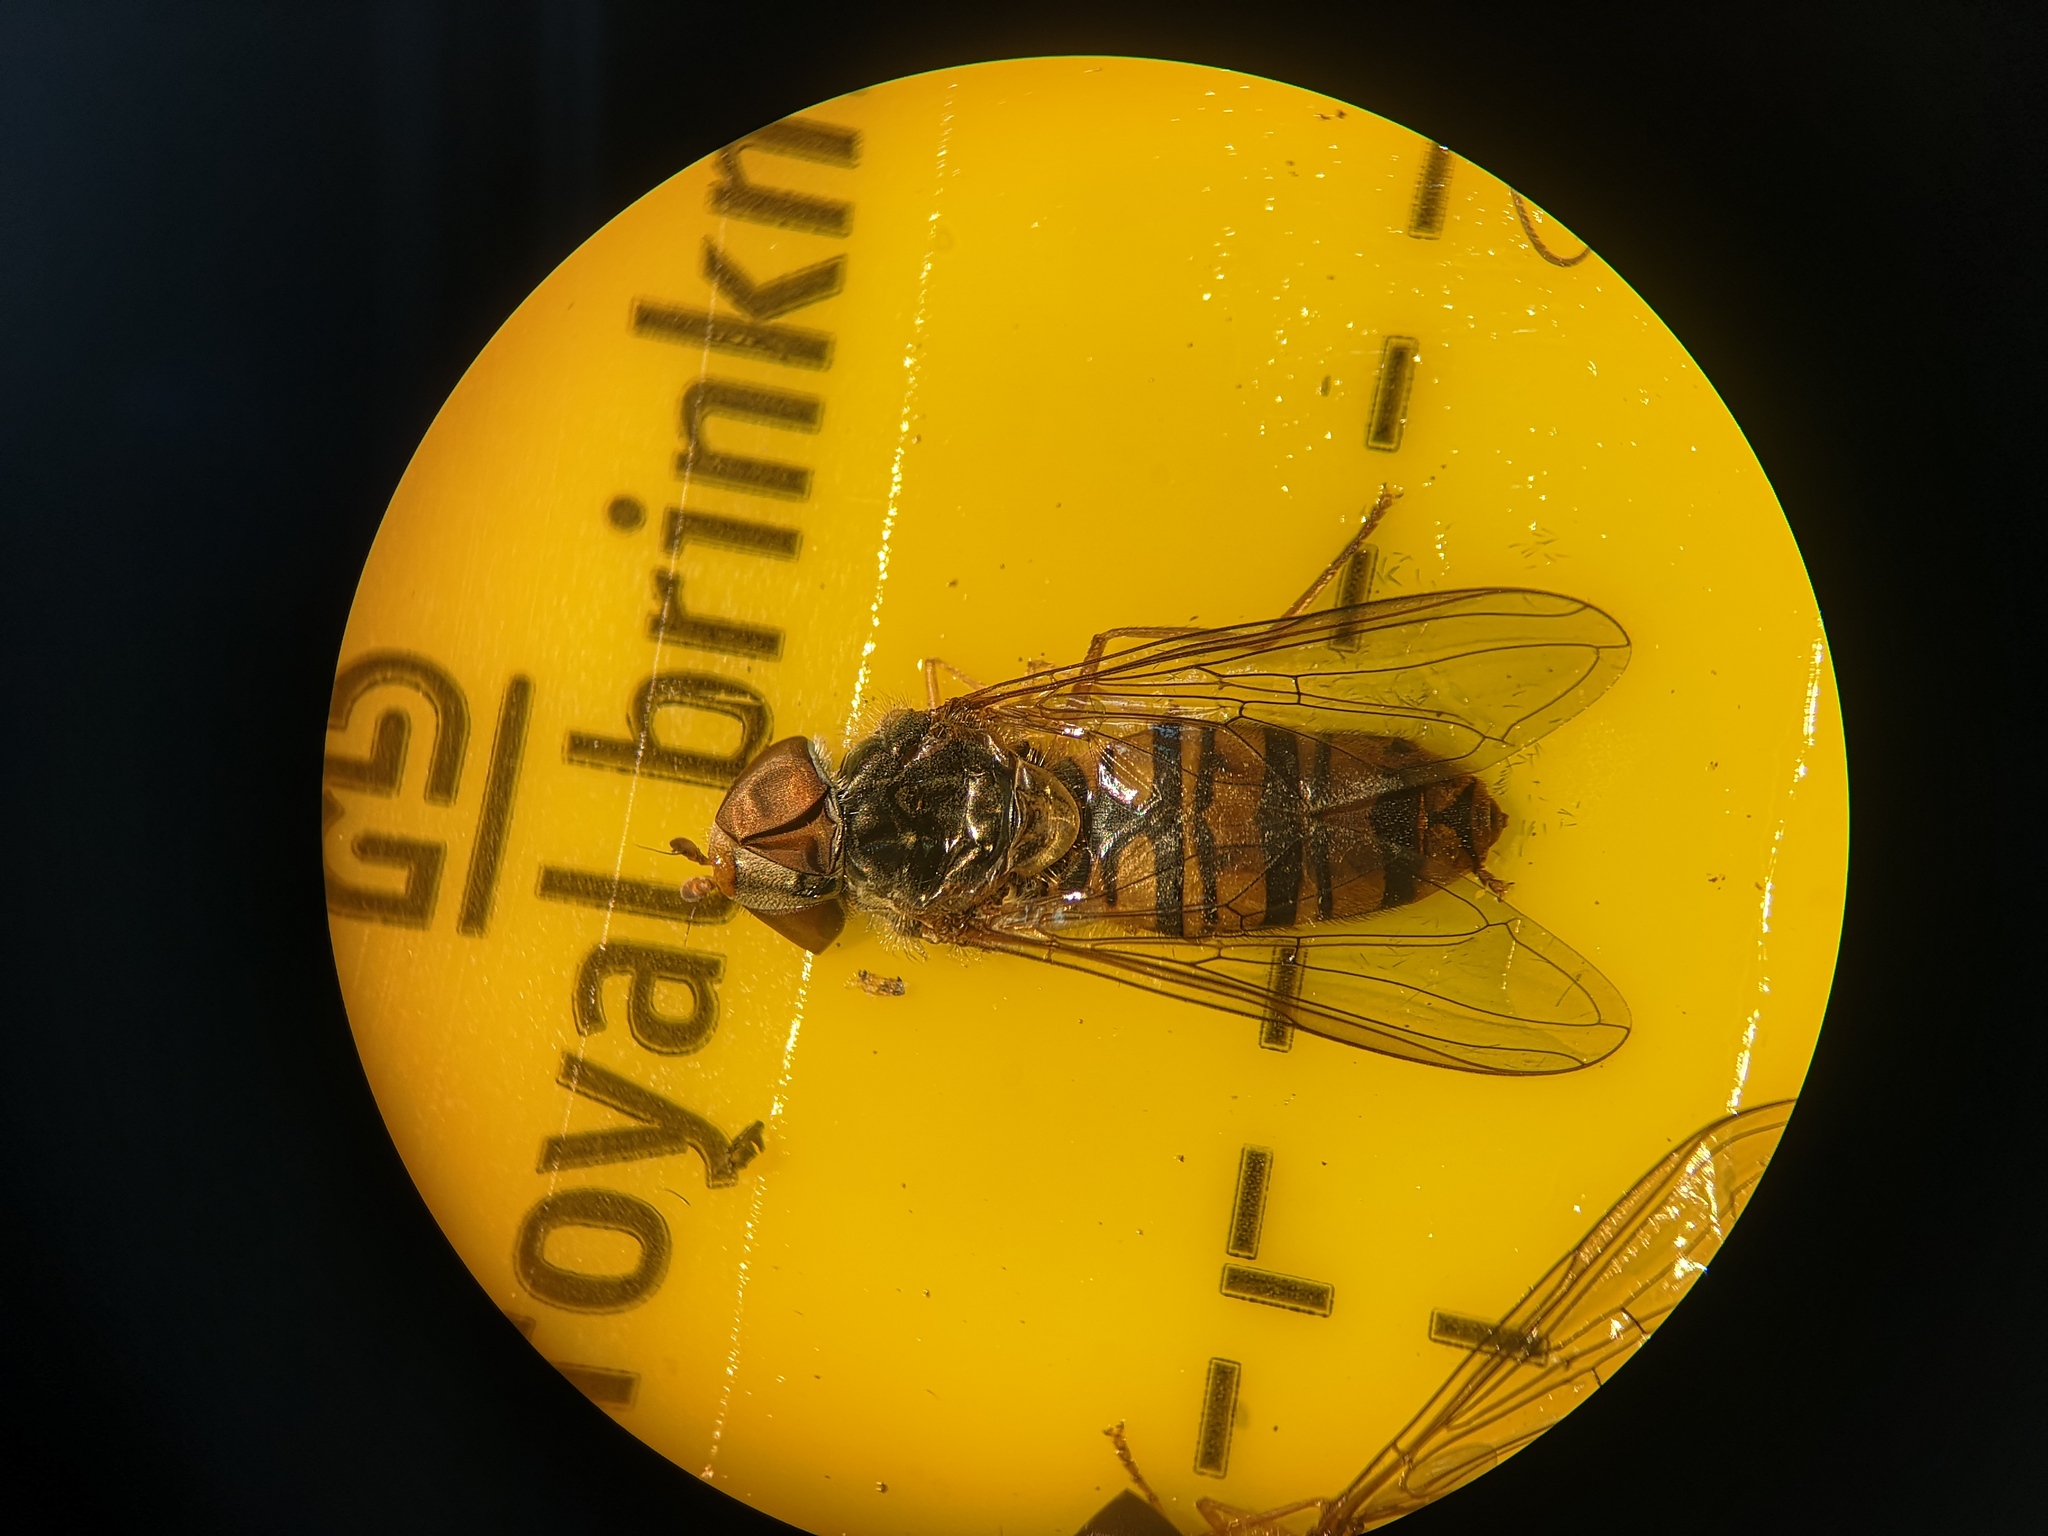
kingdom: Animalia
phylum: Arthropoda
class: Insecta
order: Diptera
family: Syrphidae
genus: Episyrphus
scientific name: Episyrphus balteatus
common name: Marmalade hoverfly
